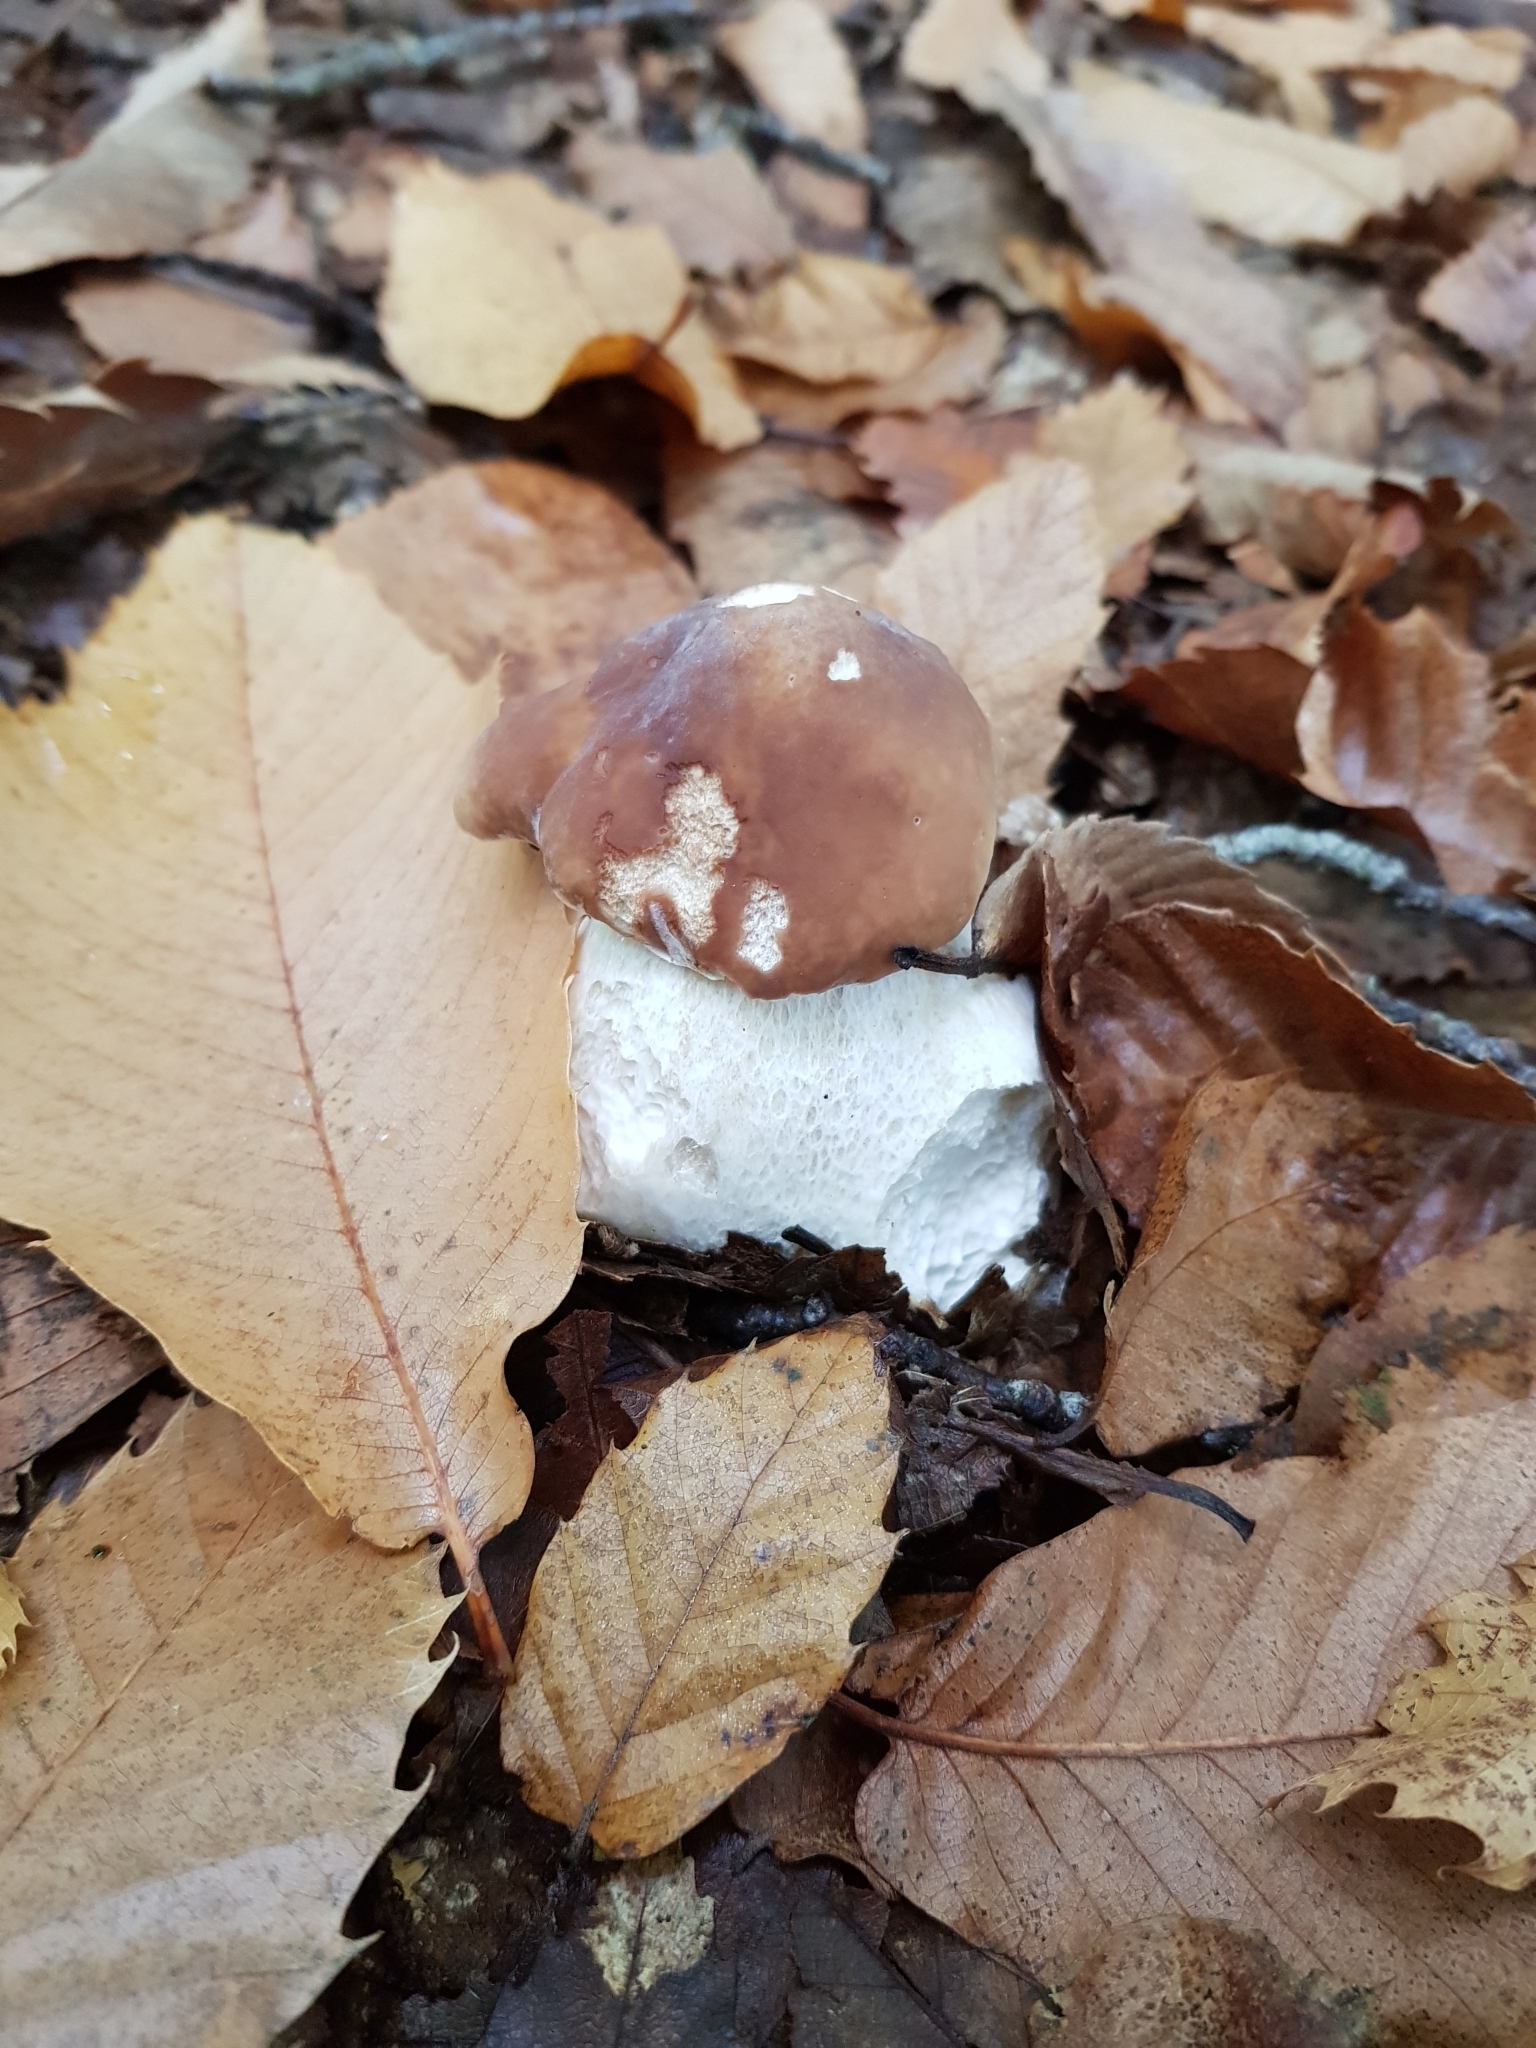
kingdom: Fungi
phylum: Basidiomycota
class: Agaricomycetes
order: Boletales
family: Boletaceae
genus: Boletus
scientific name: Boletus edulis
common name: Cep
